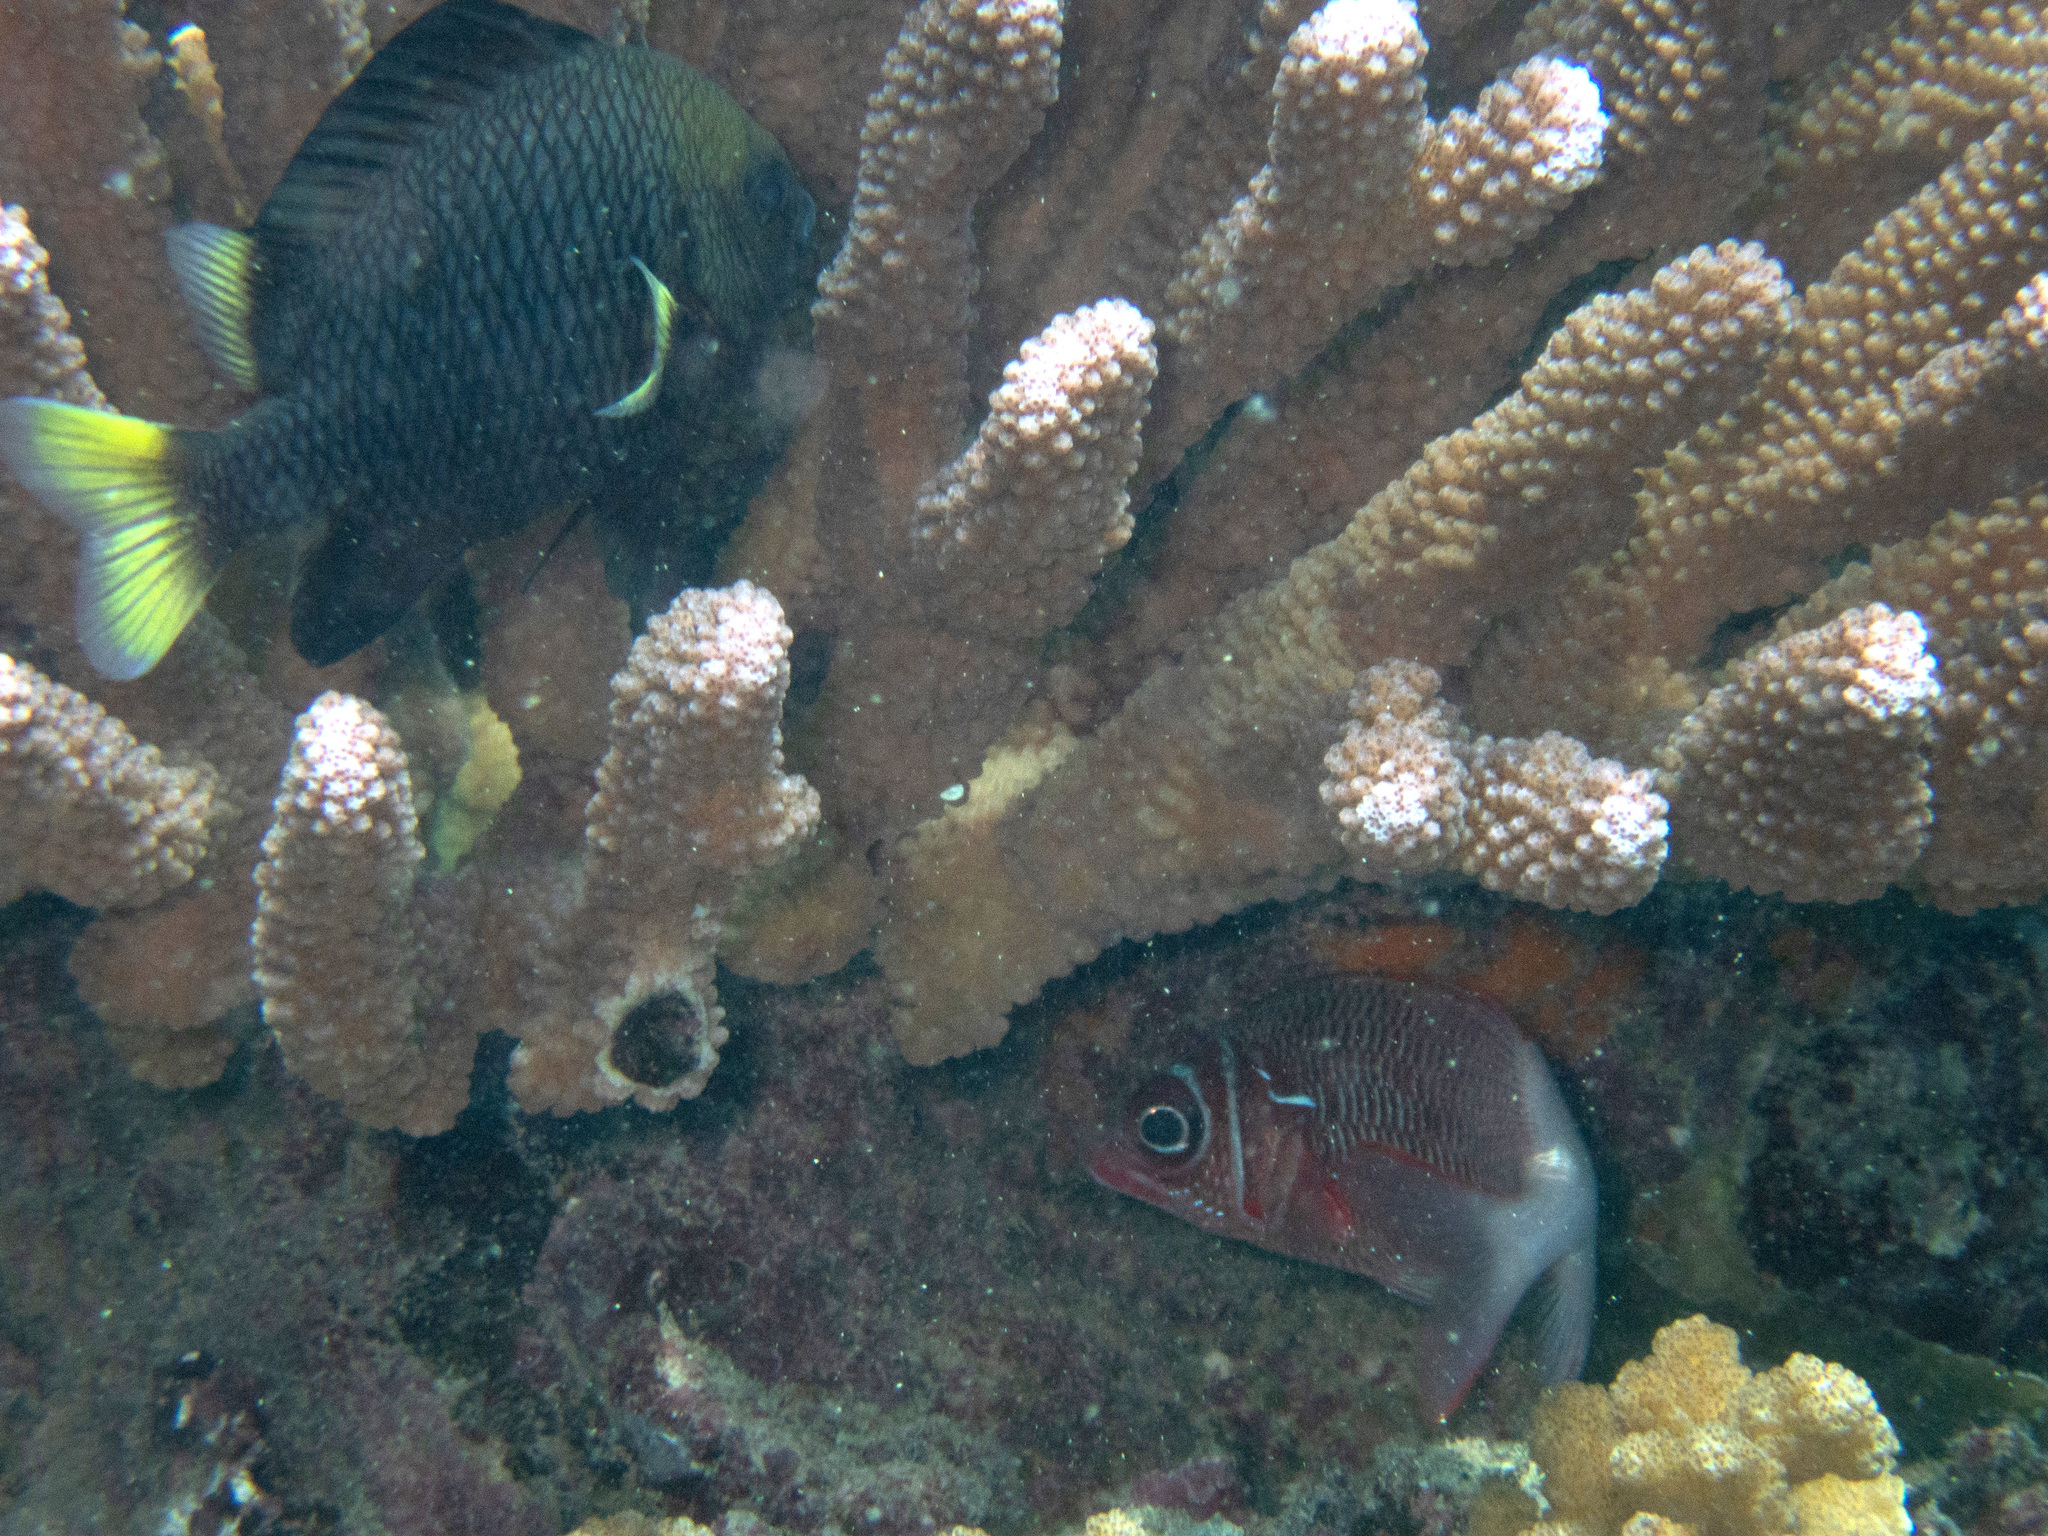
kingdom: Animalia
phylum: Chordata
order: Perciformes
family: Pomacentridae
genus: Dascyllus
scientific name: Dascyllus flavicaudus
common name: Yellow-tailed dascyllus
